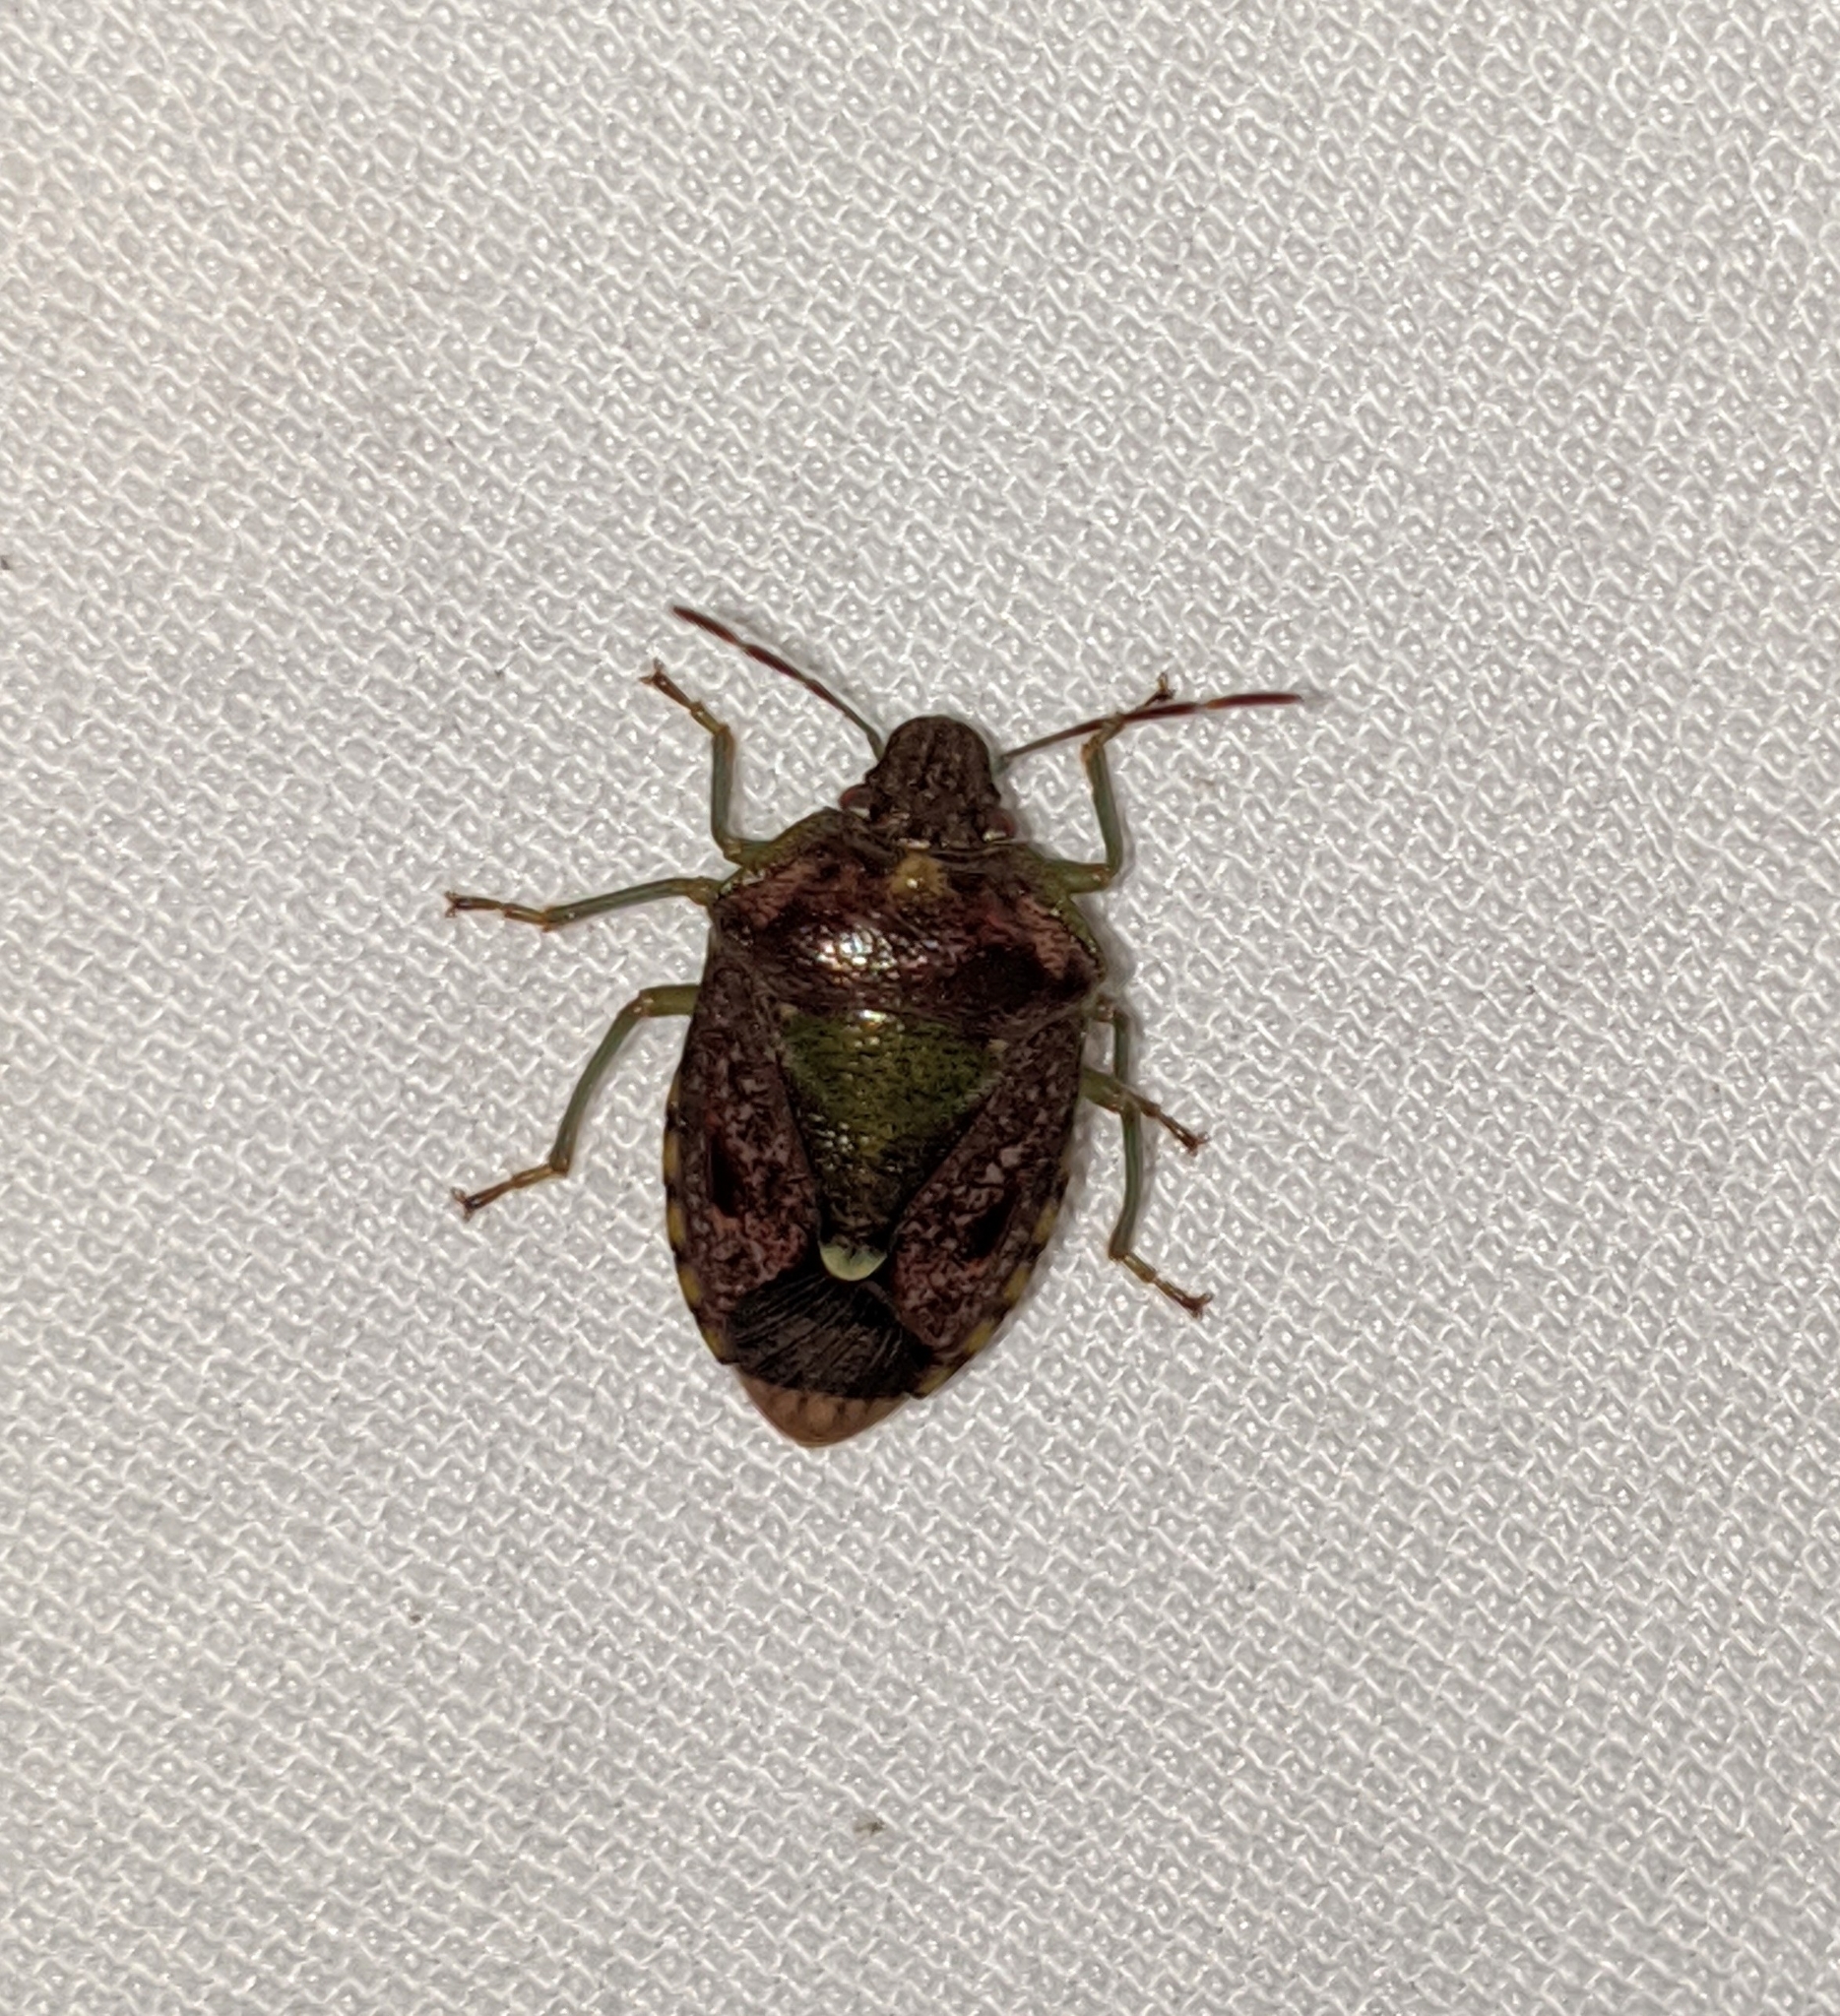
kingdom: Animalia
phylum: Arthropoda
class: Insecta
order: Hemiptera
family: Pentatomidae
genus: Banasa
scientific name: Banasa sordida
